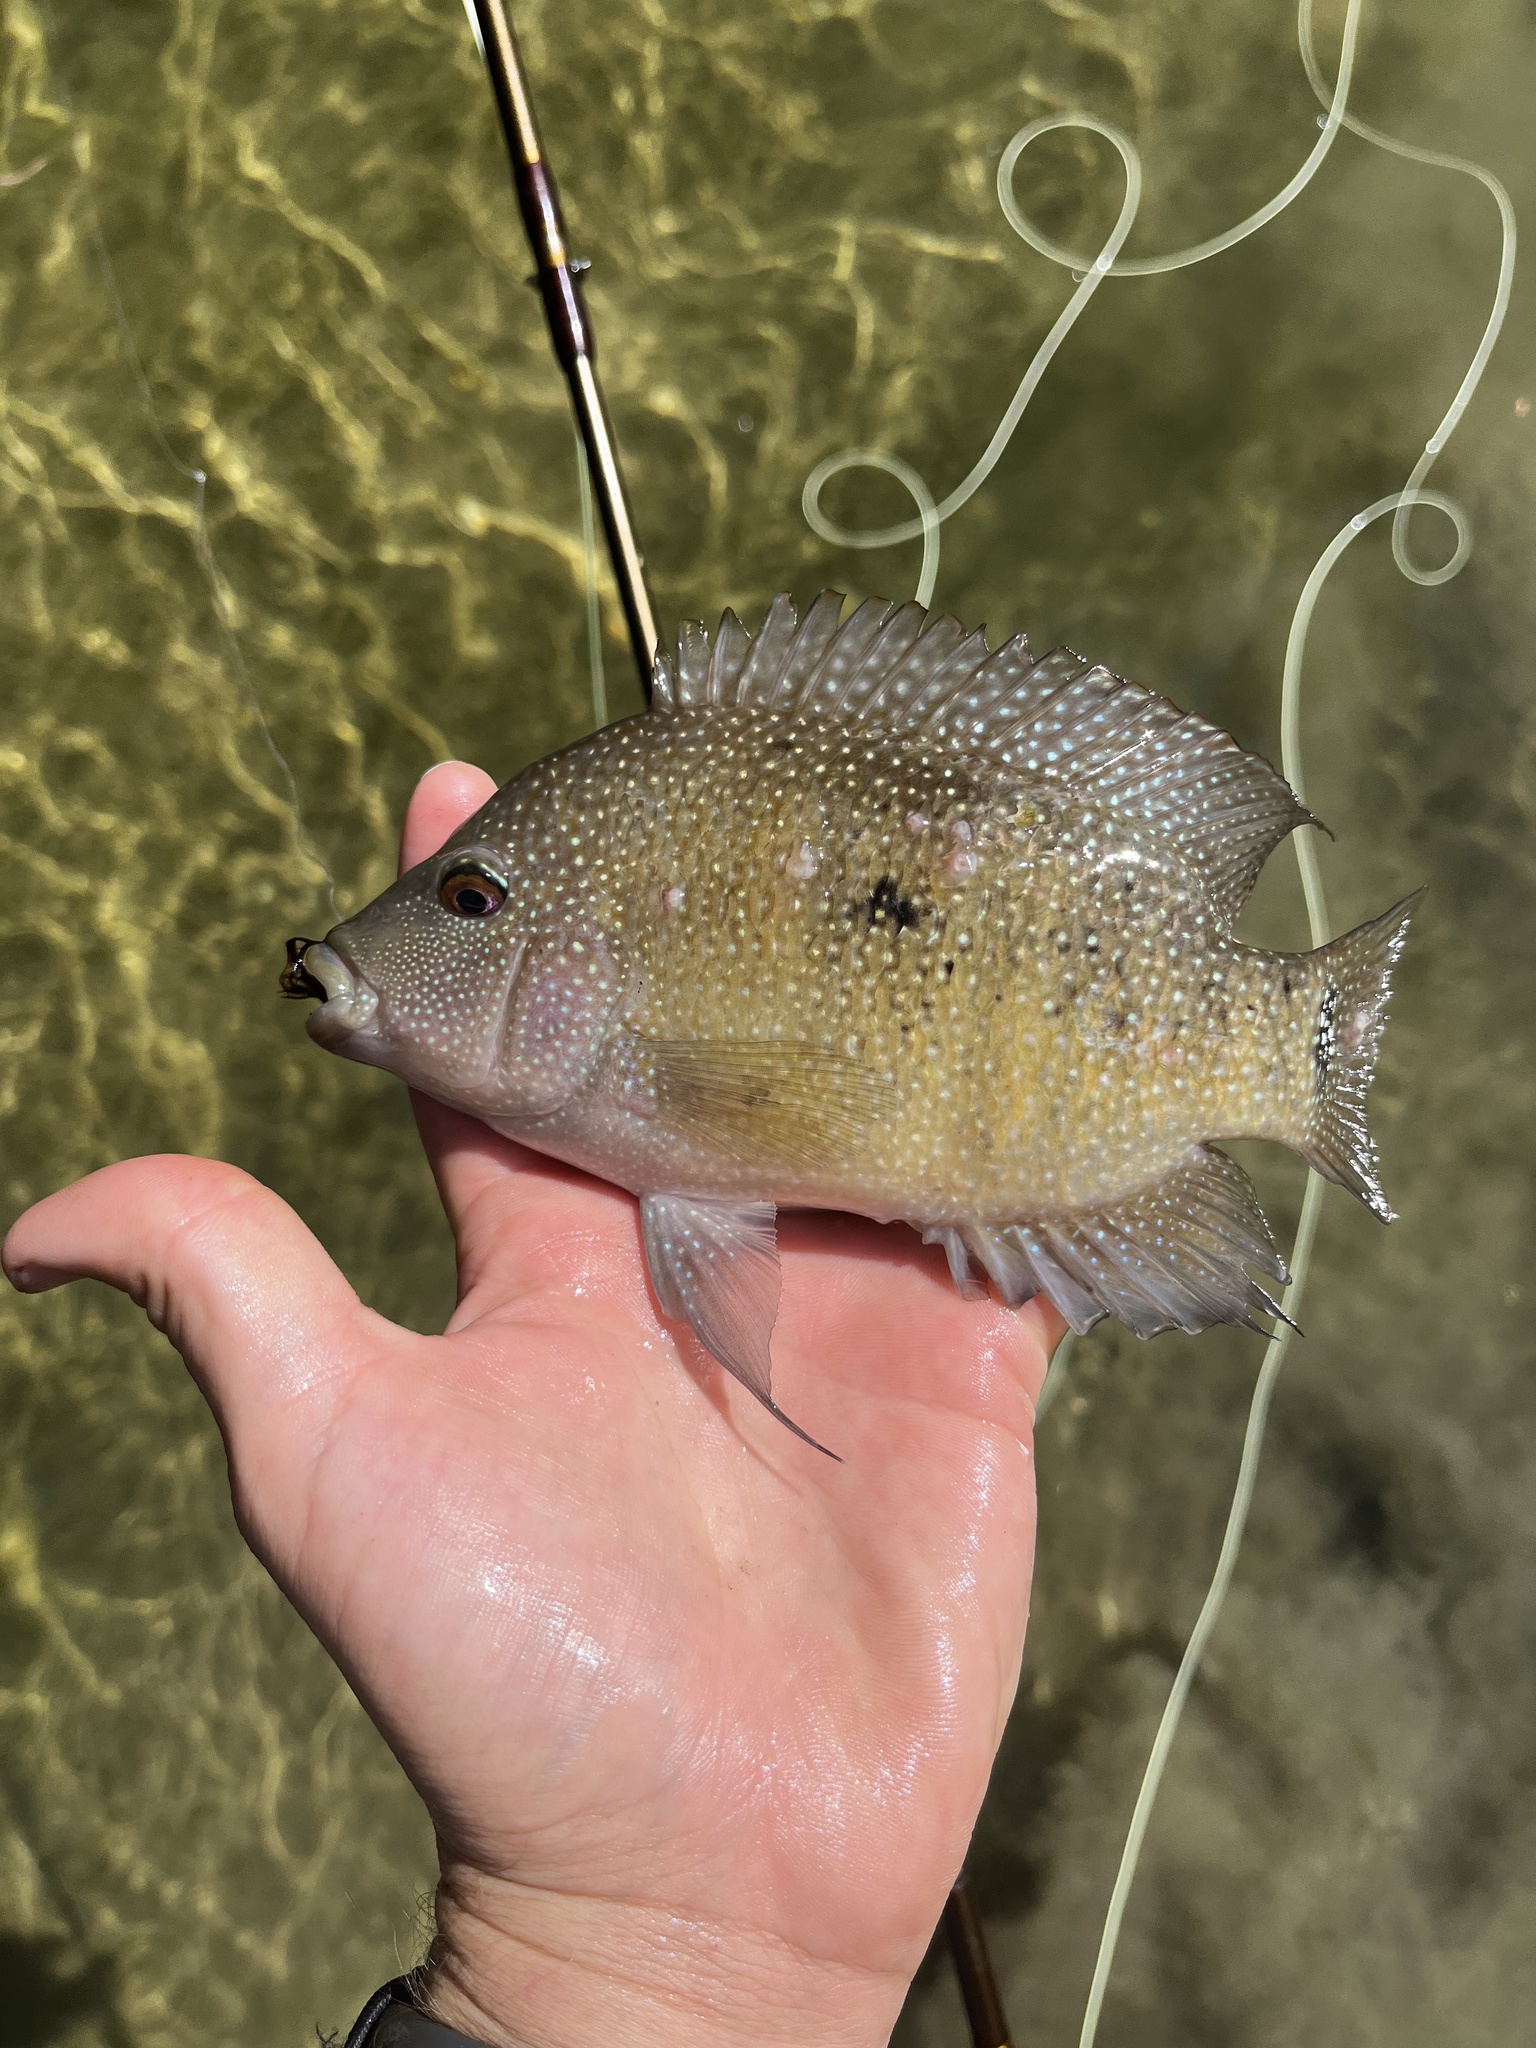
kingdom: Animalia
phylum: Chordata
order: Perciformes
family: Cichlidae
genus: Herichthys
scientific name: Herichthys cyanoguttatus
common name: Rio grande cichlid
